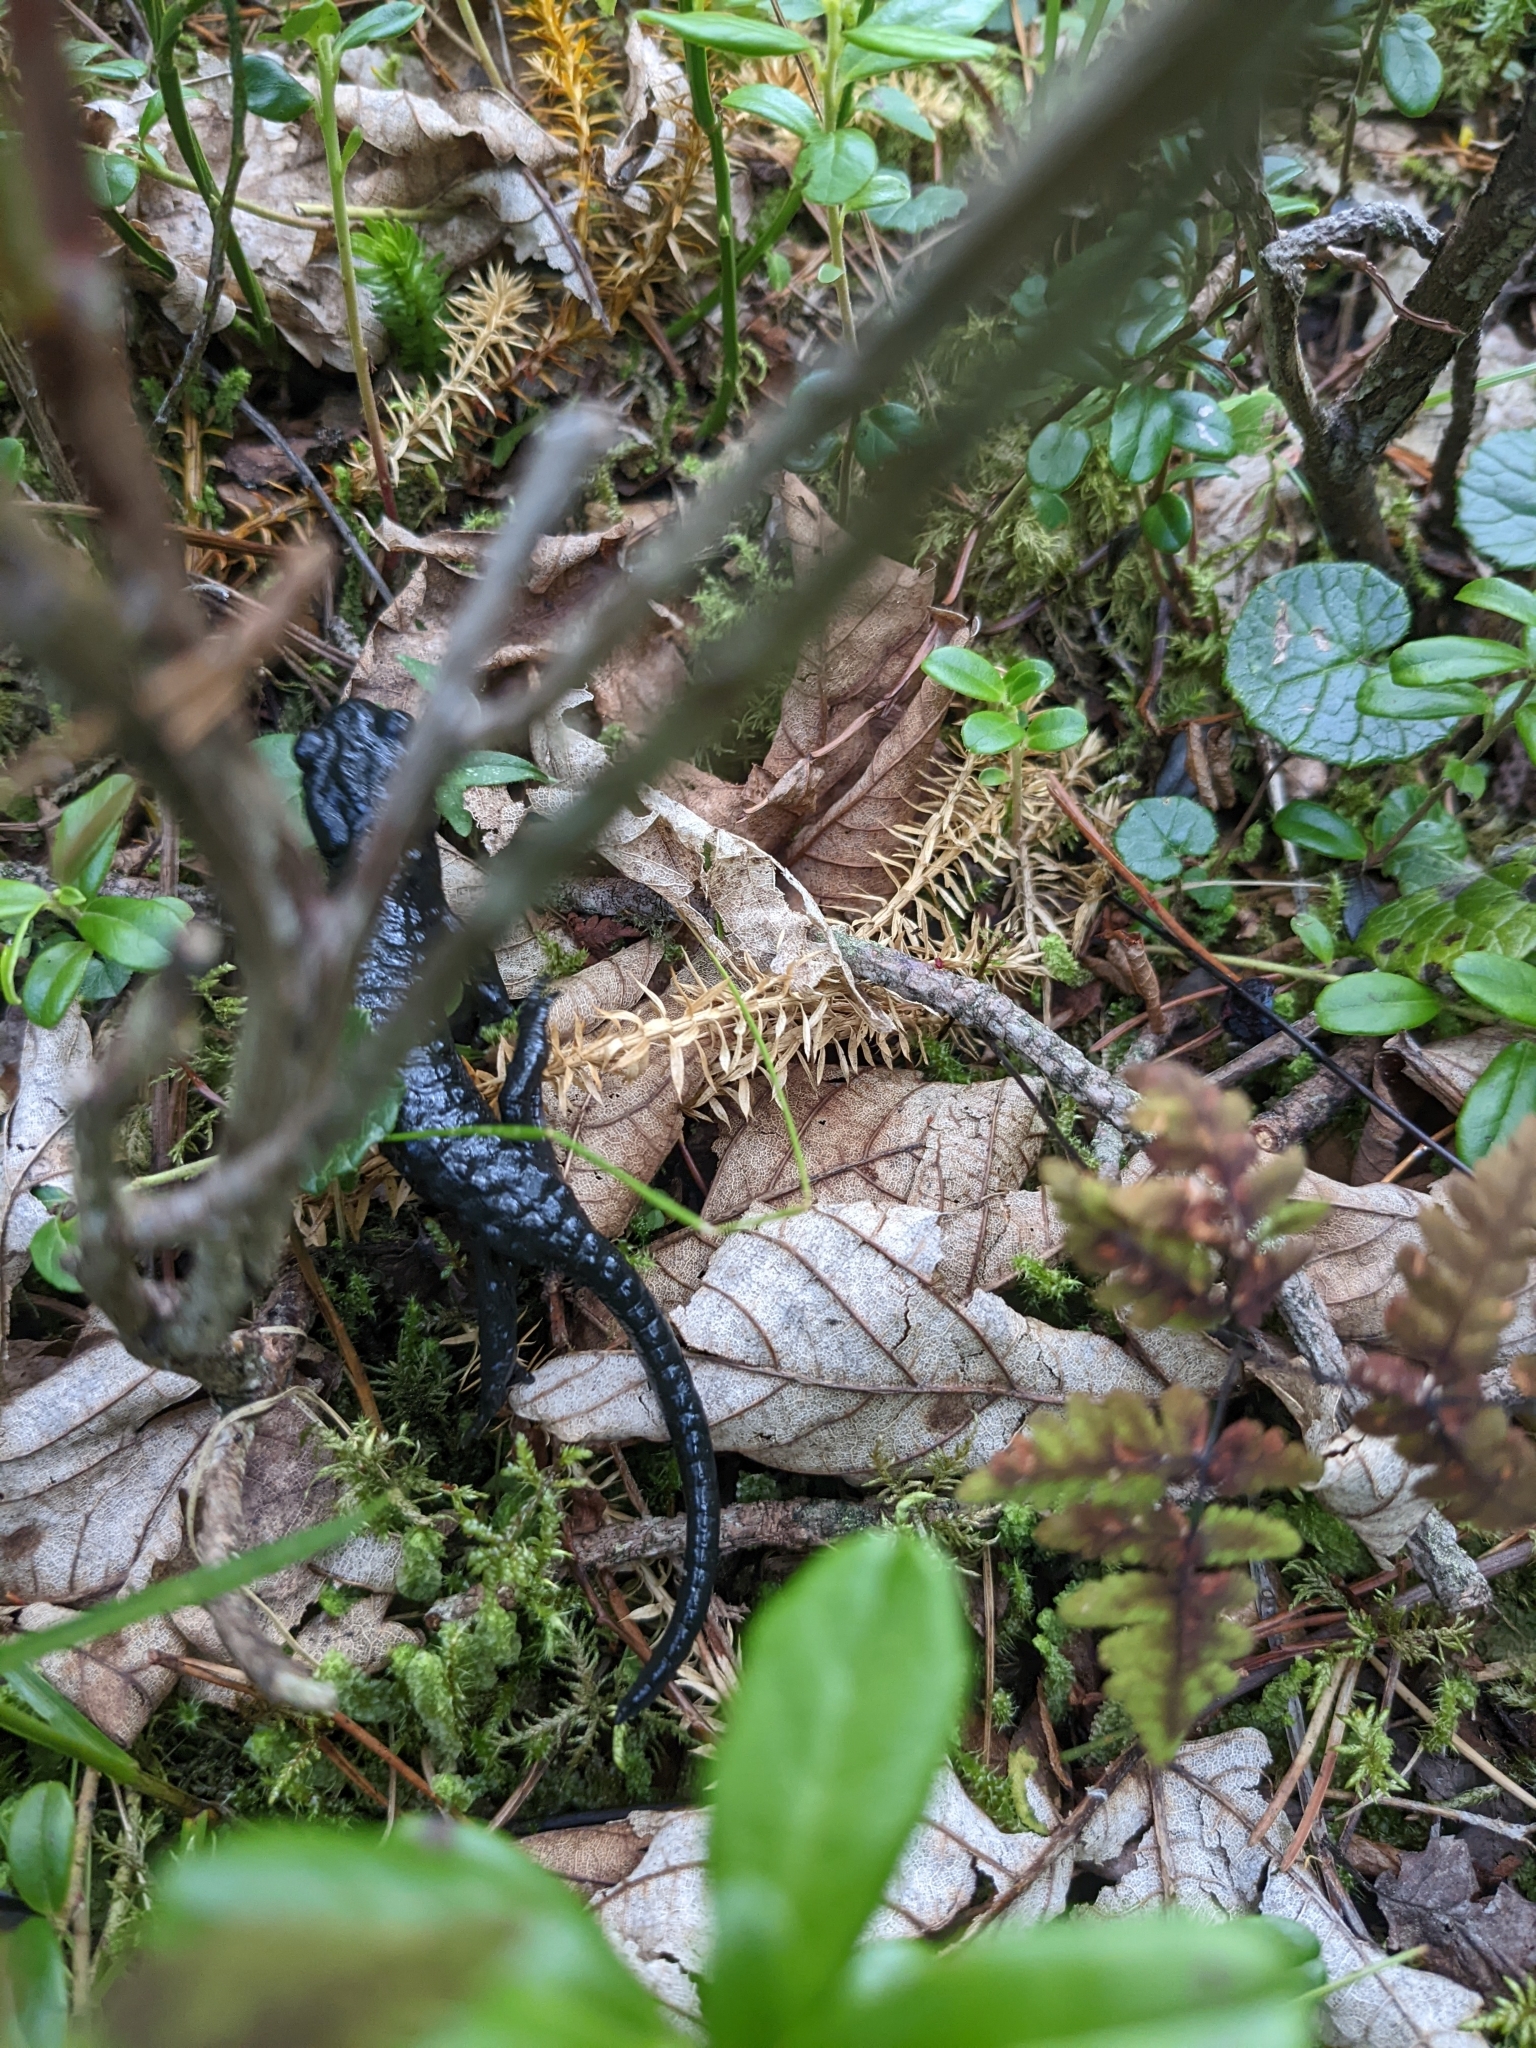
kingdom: Animalia
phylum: Chordata
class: Amphibia
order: Caudata
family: Salamandridae
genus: Salamandra
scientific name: Salamandra atra
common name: Alpine salamander
